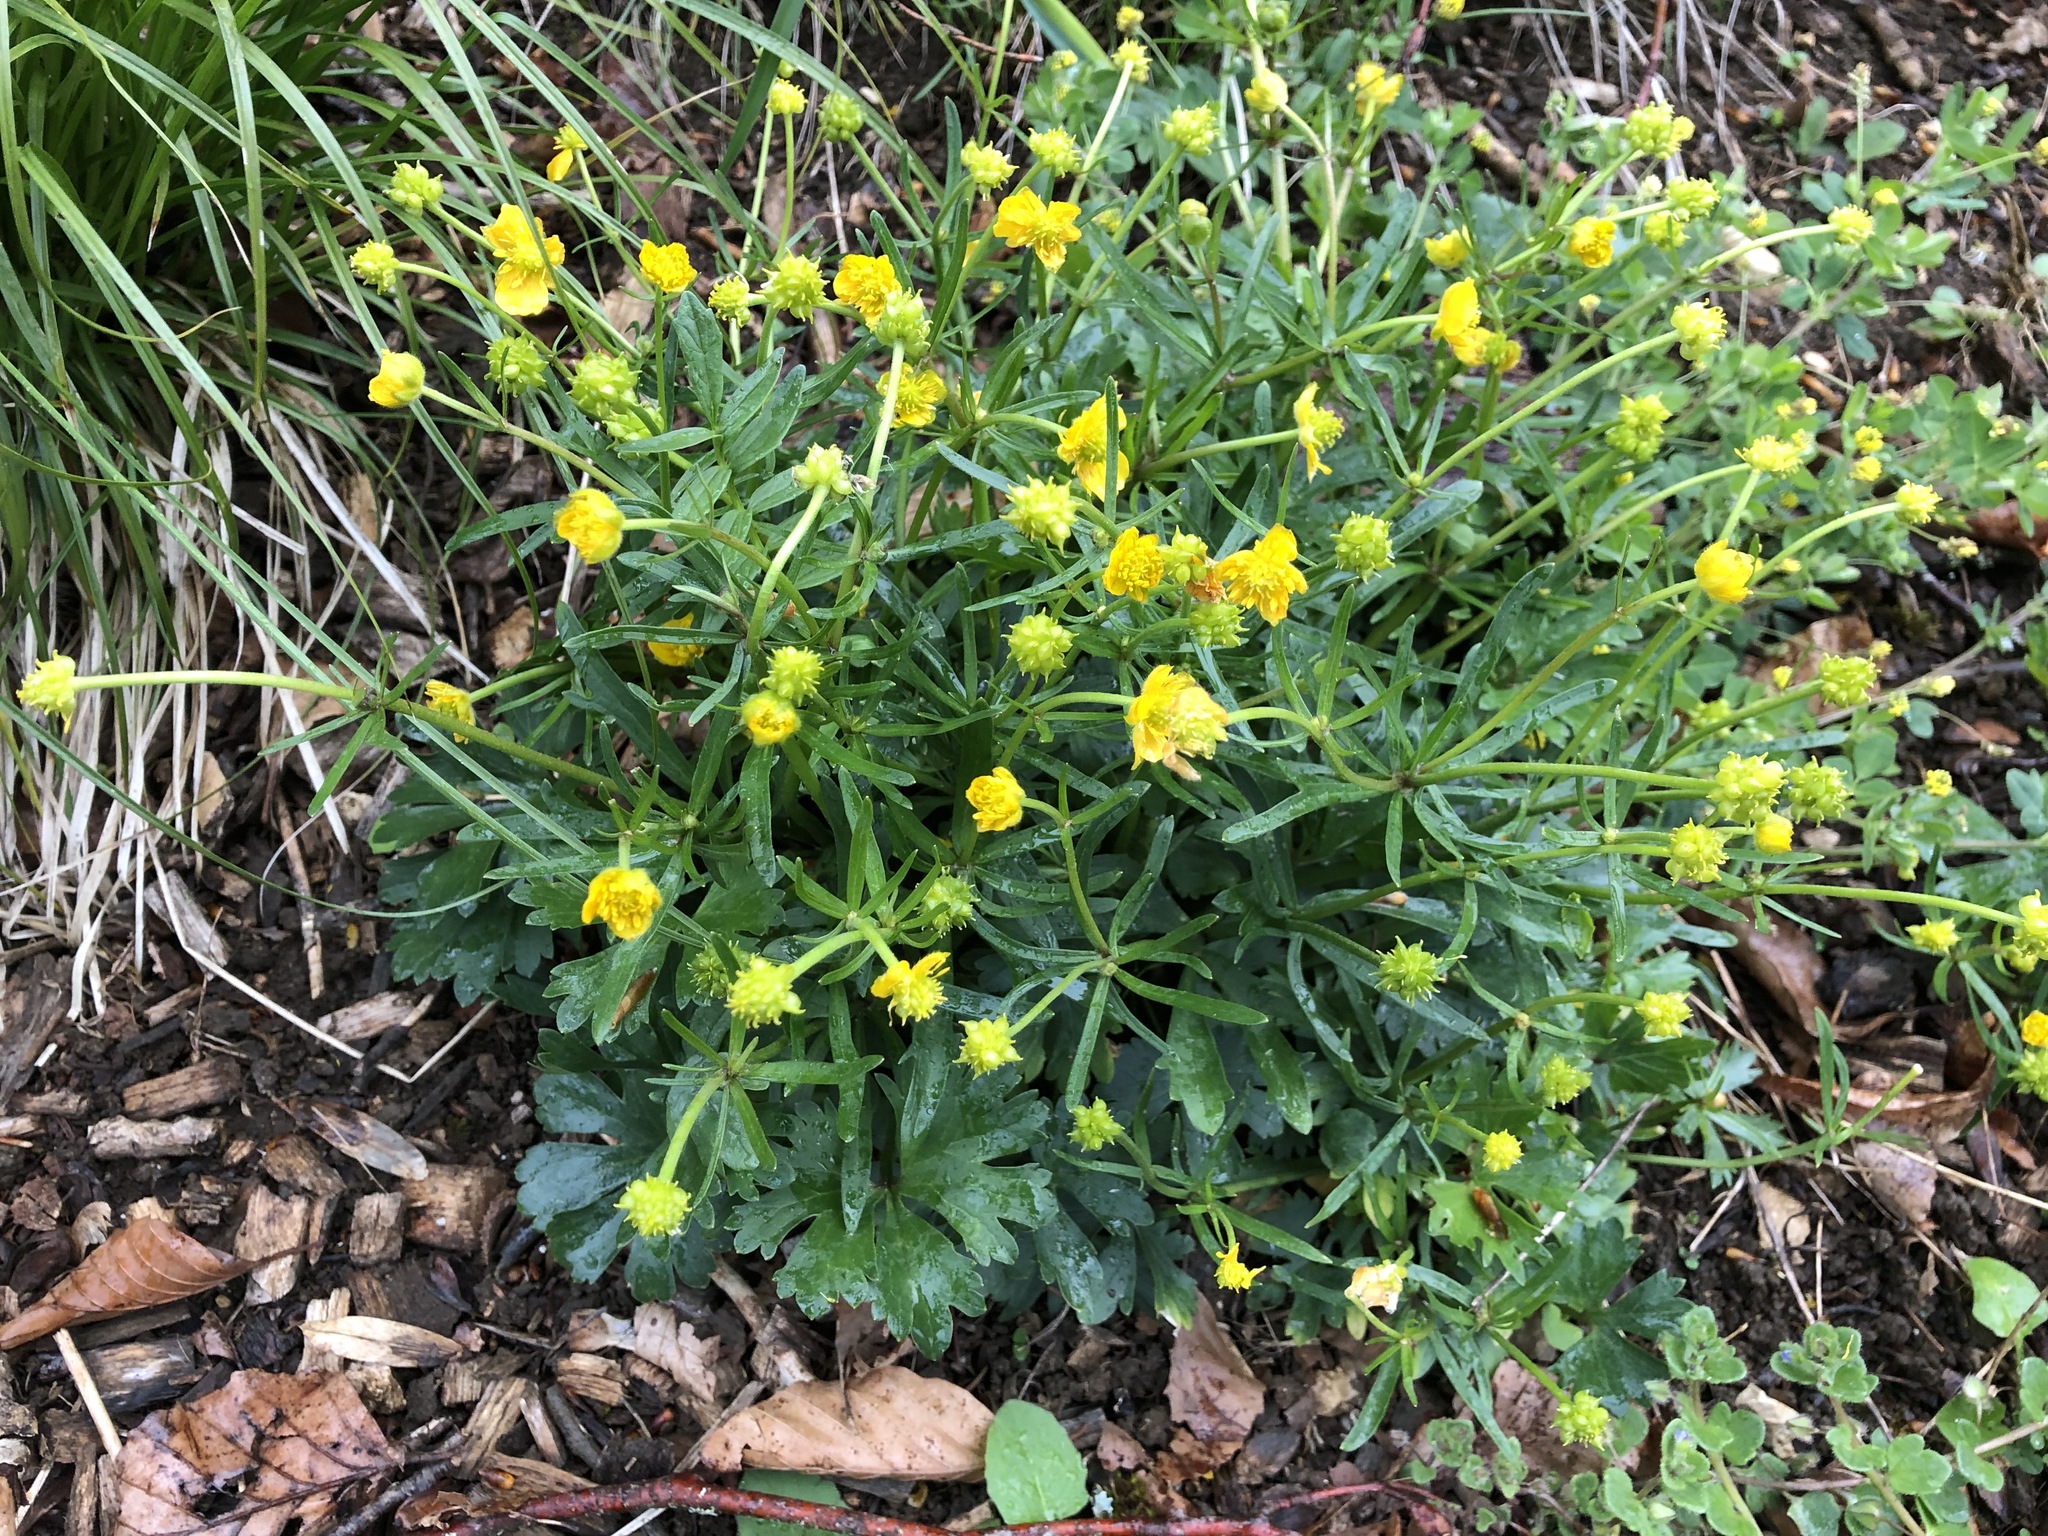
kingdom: Plantae
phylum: Tracheophyta
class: Magnoliopsida
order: Ranunculales
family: Ranunculaceae
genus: Ranunculus
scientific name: Ranunculus auricomus
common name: Goldilocks buttercup
